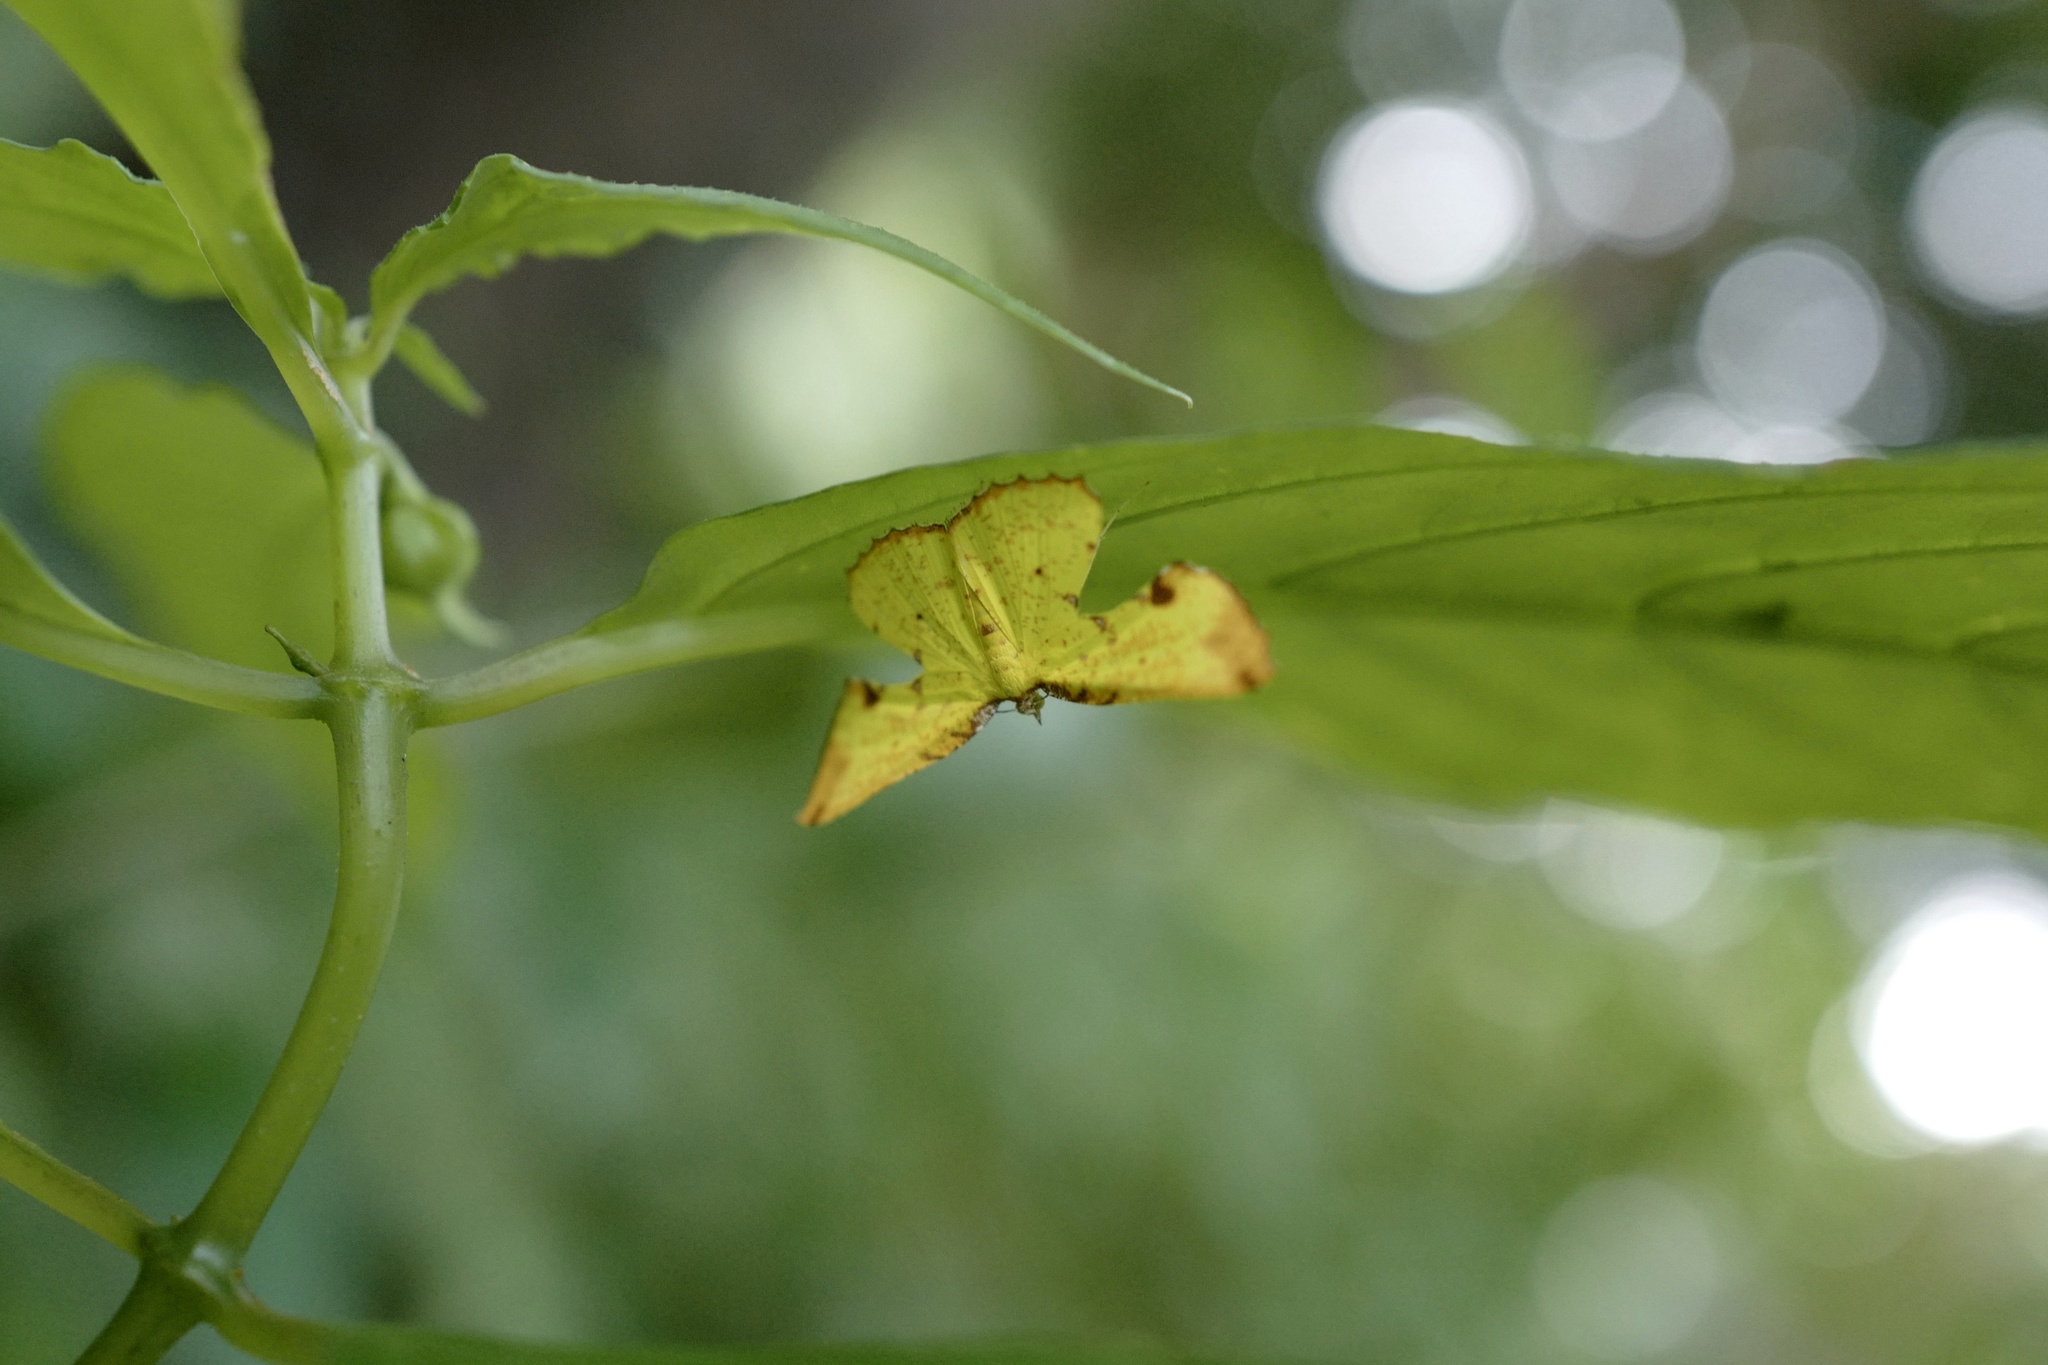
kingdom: Animalia
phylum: Arthropoda
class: Insecta
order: Lepidoptera
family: Geometridae
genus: Corymica
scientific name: Corymica arnearia
